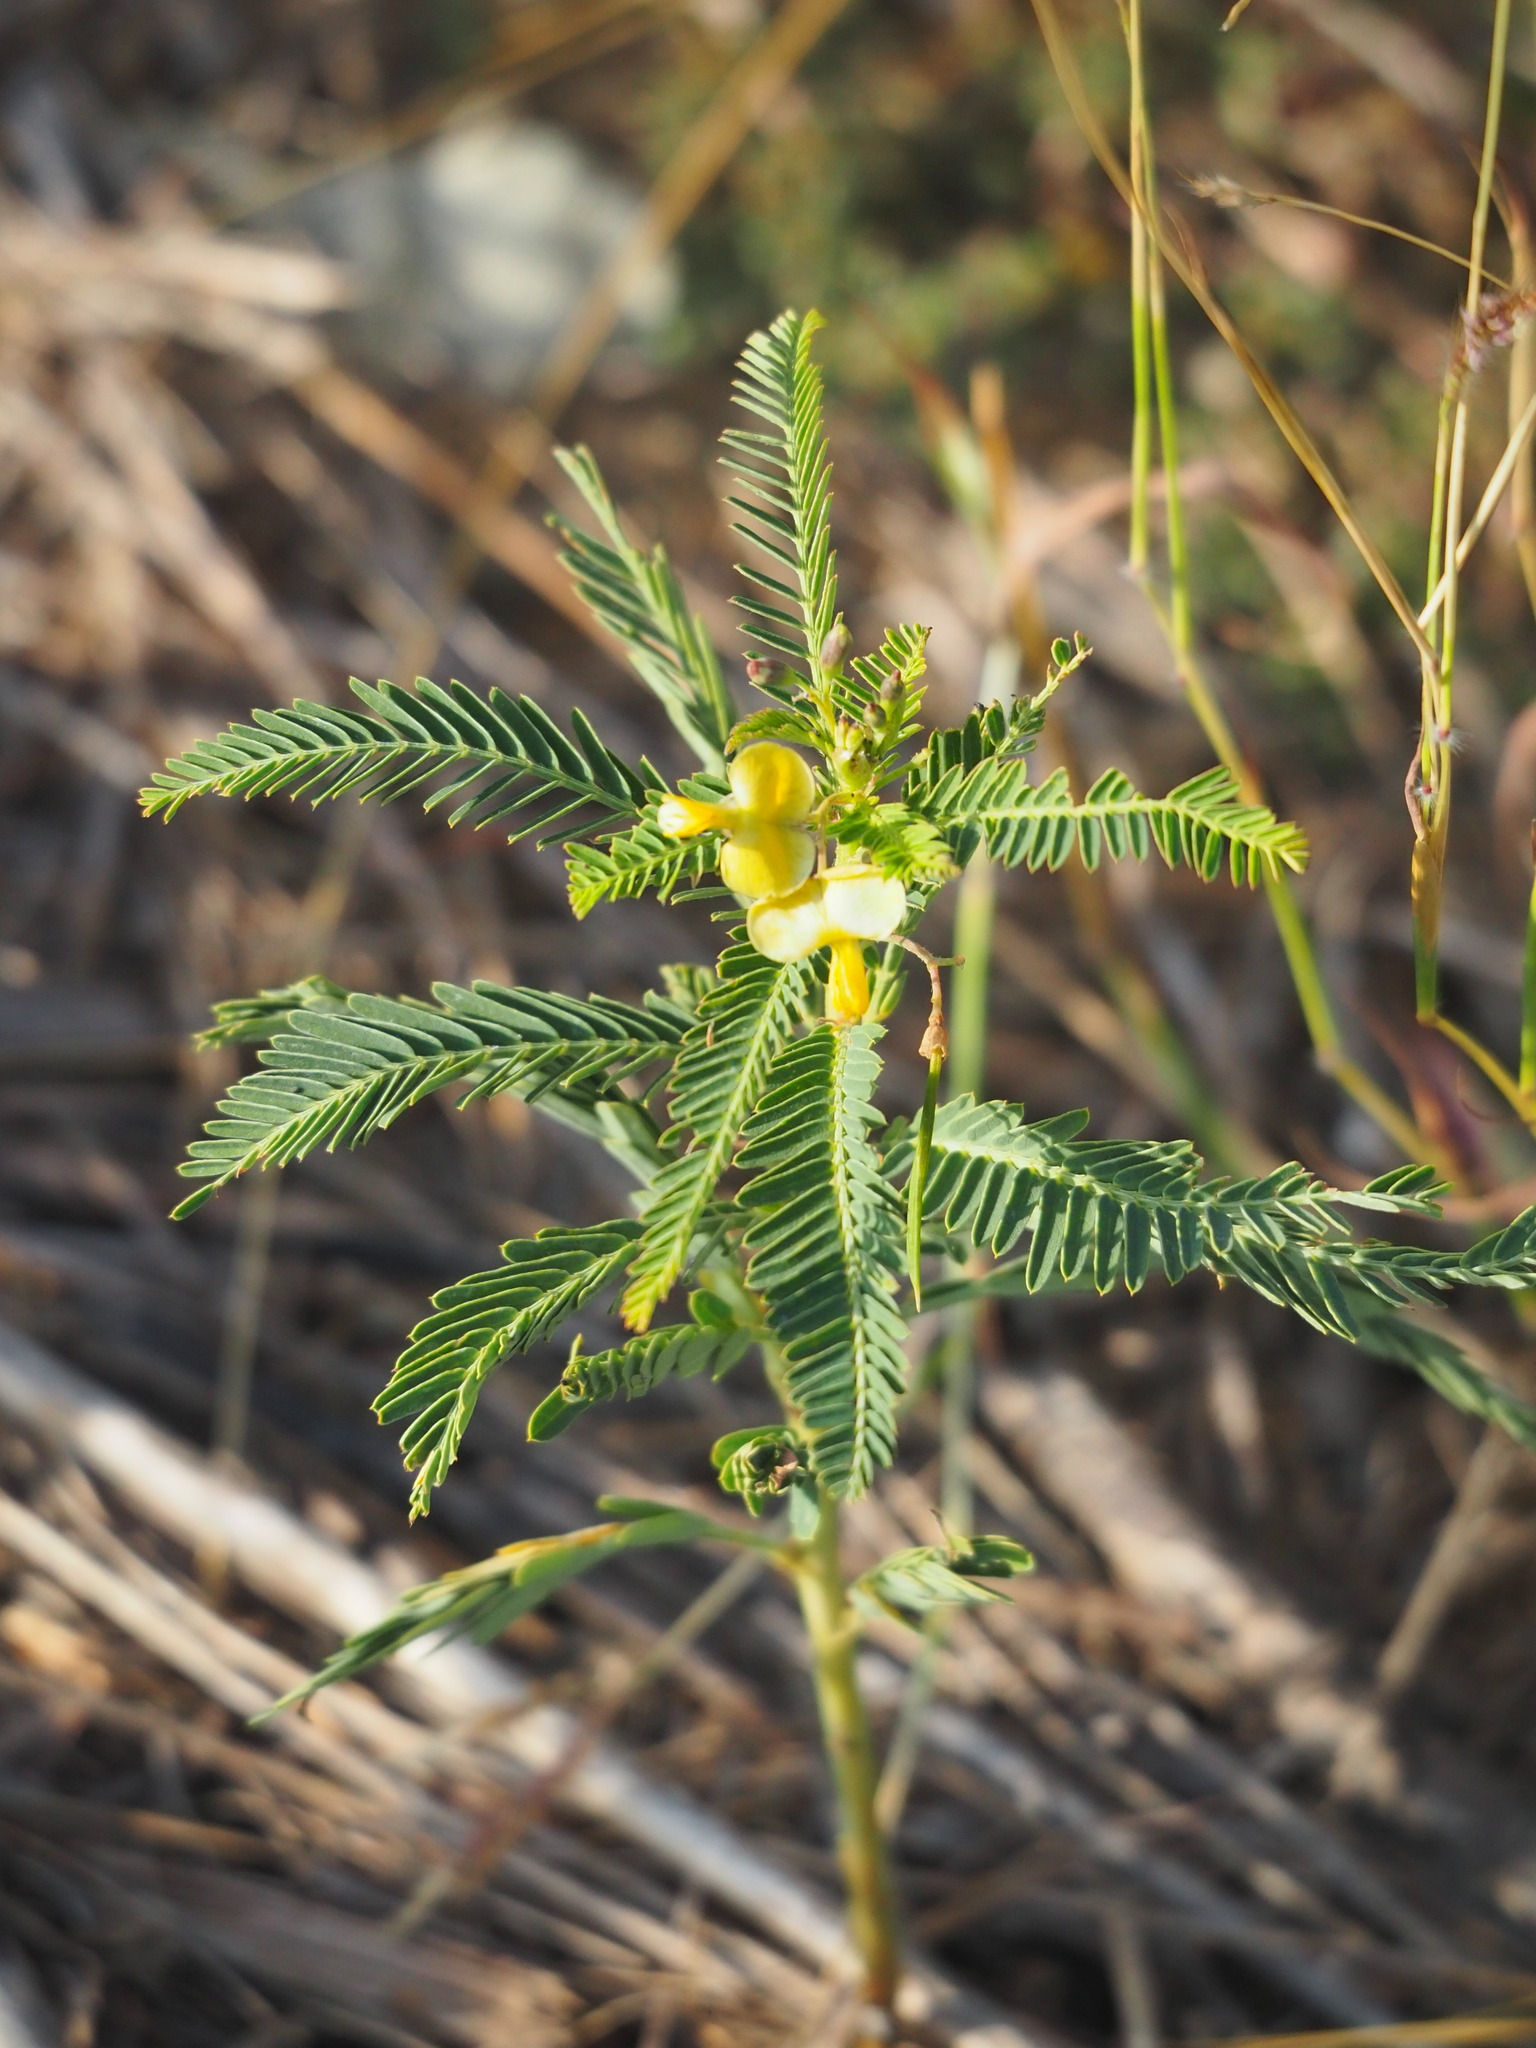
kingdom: Plantae
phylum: Tracheophyta
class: Magnoliopsida
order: Fabales
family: Fabaceae
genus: Sesbania
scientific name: Sesbania cannabina
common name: Canicha
